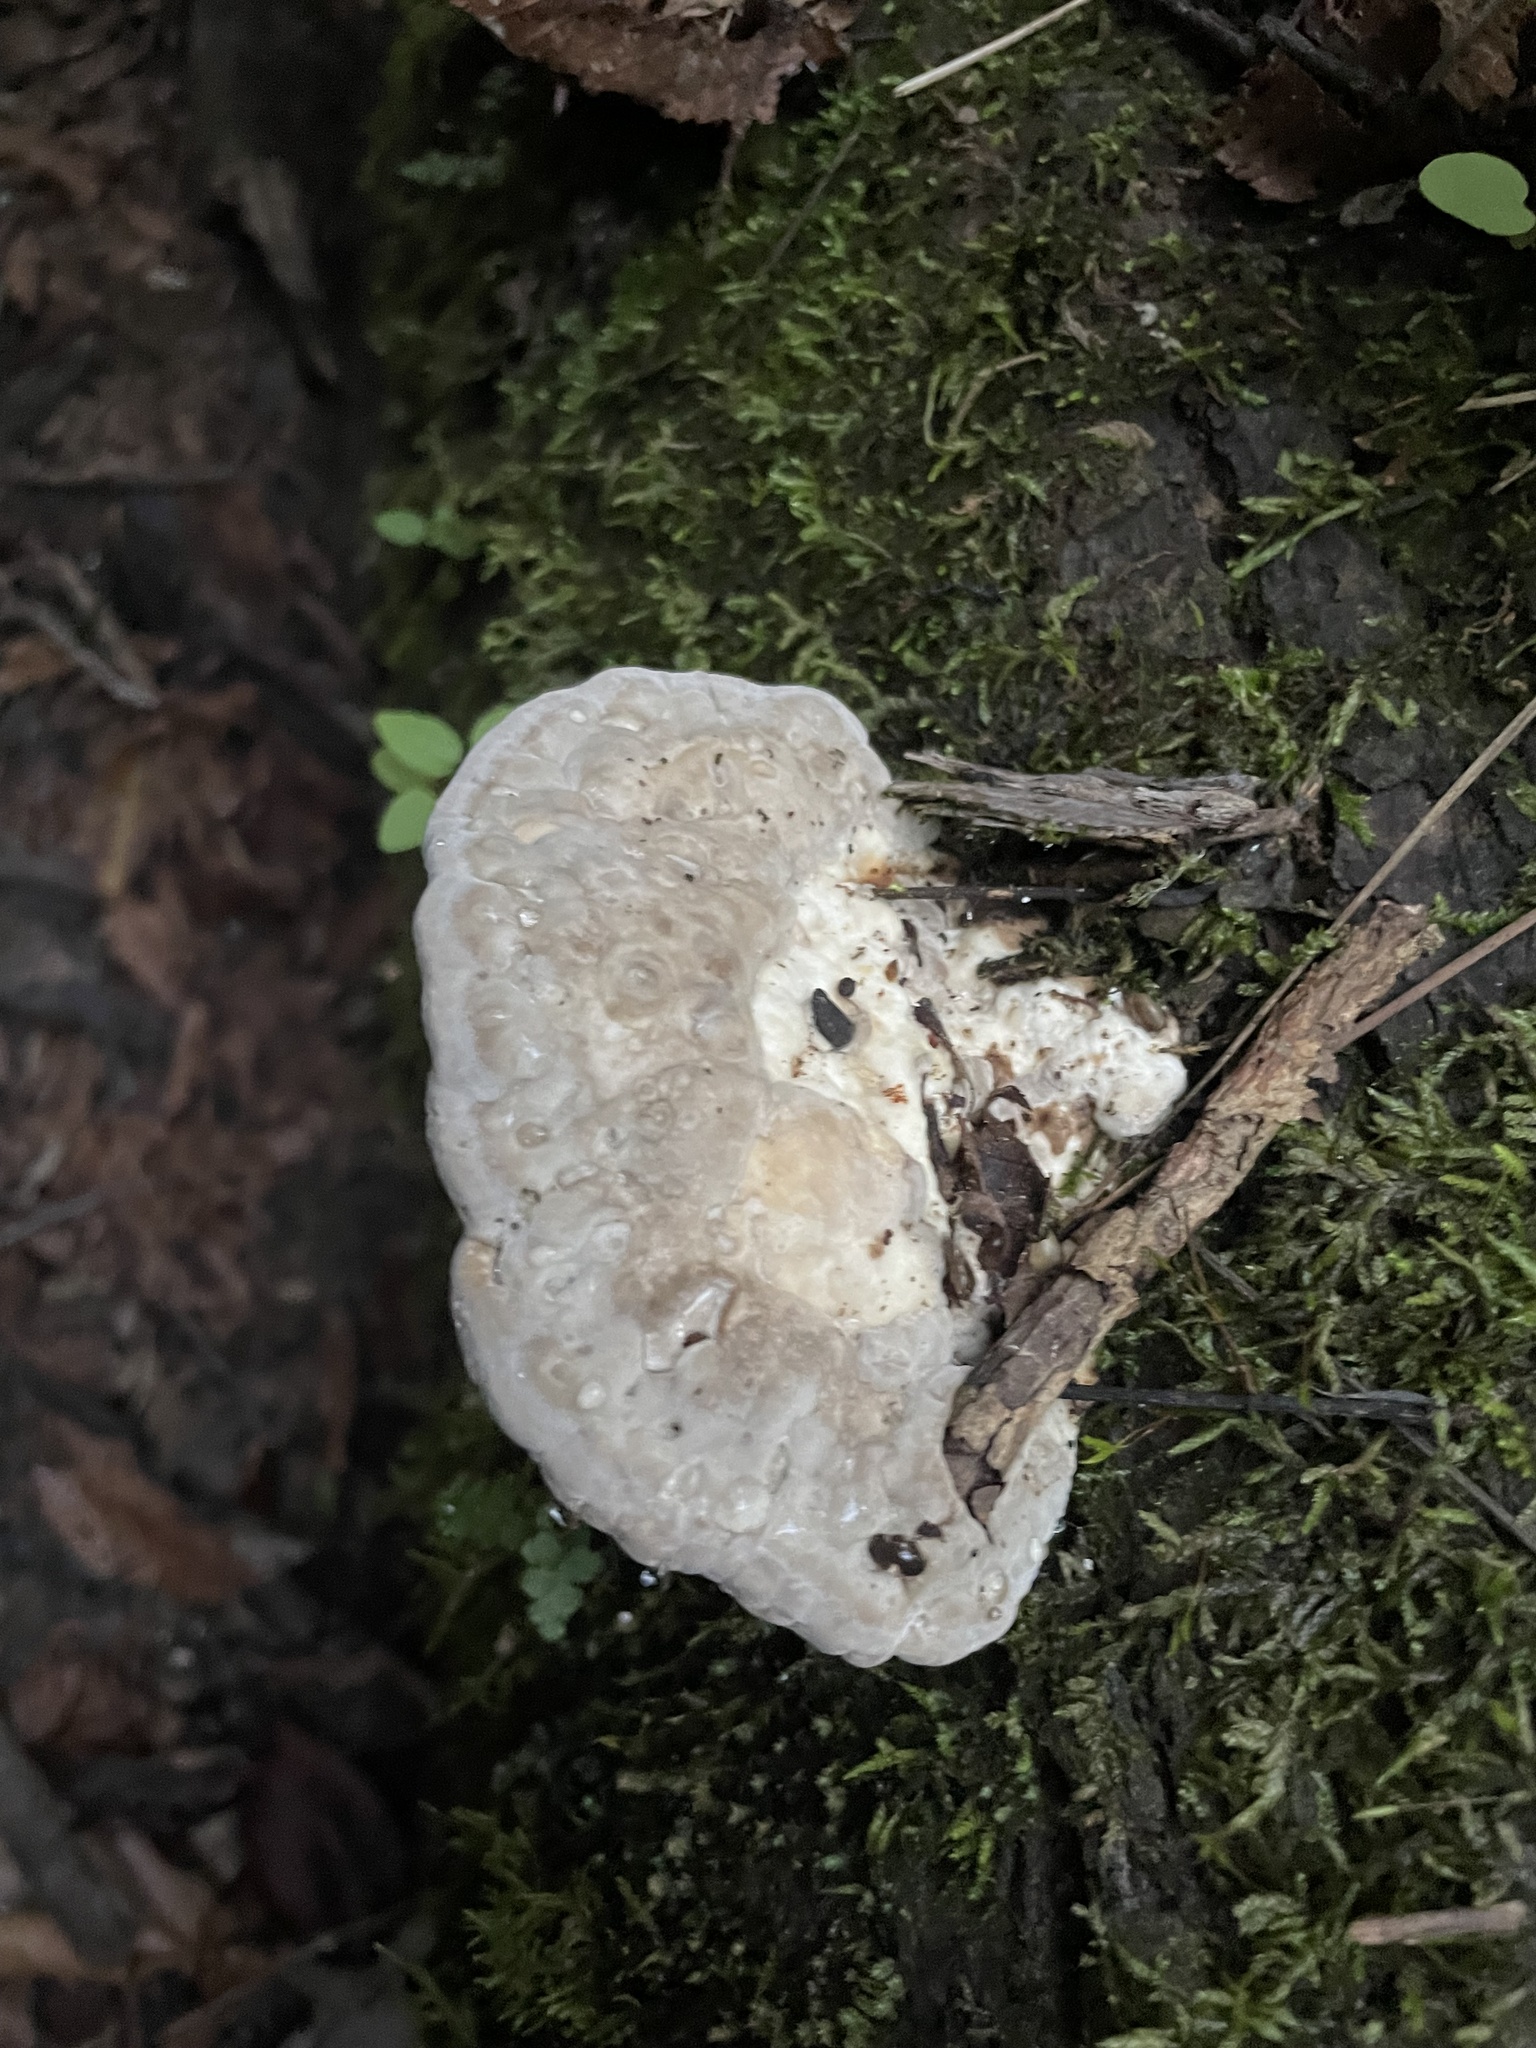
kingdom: Fungi
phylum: Basidiomycota
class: Agaricomycetes
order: Polyporales
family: Polyporaceae
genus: Trametes
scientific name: Trametes gibbosa
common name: Lumpy bracket
